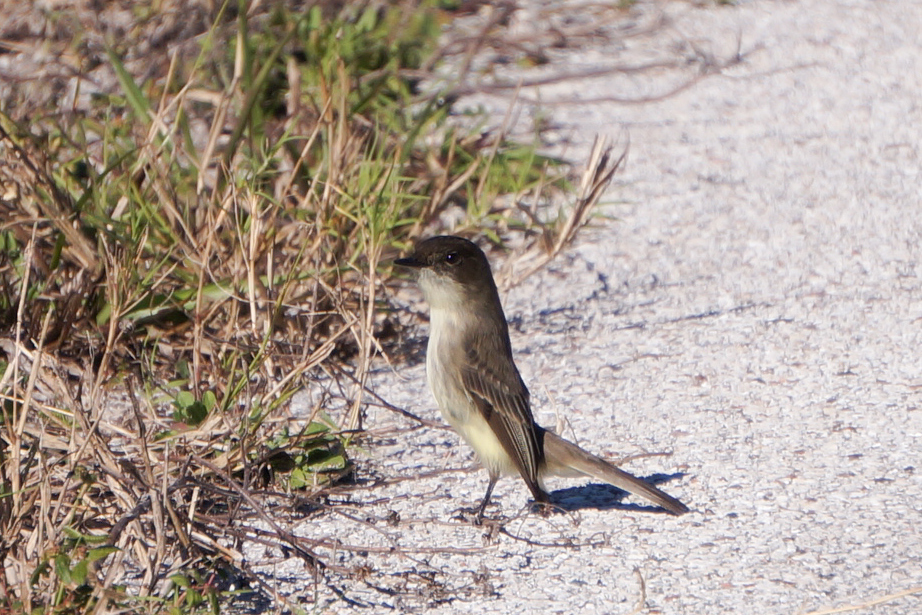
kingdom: Animalia
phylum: Chordata
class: Aves
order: Passeriformes
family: Tyrannidae
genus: Sayornis
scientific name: Sayornis phoebe
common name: Eastern phoebe
